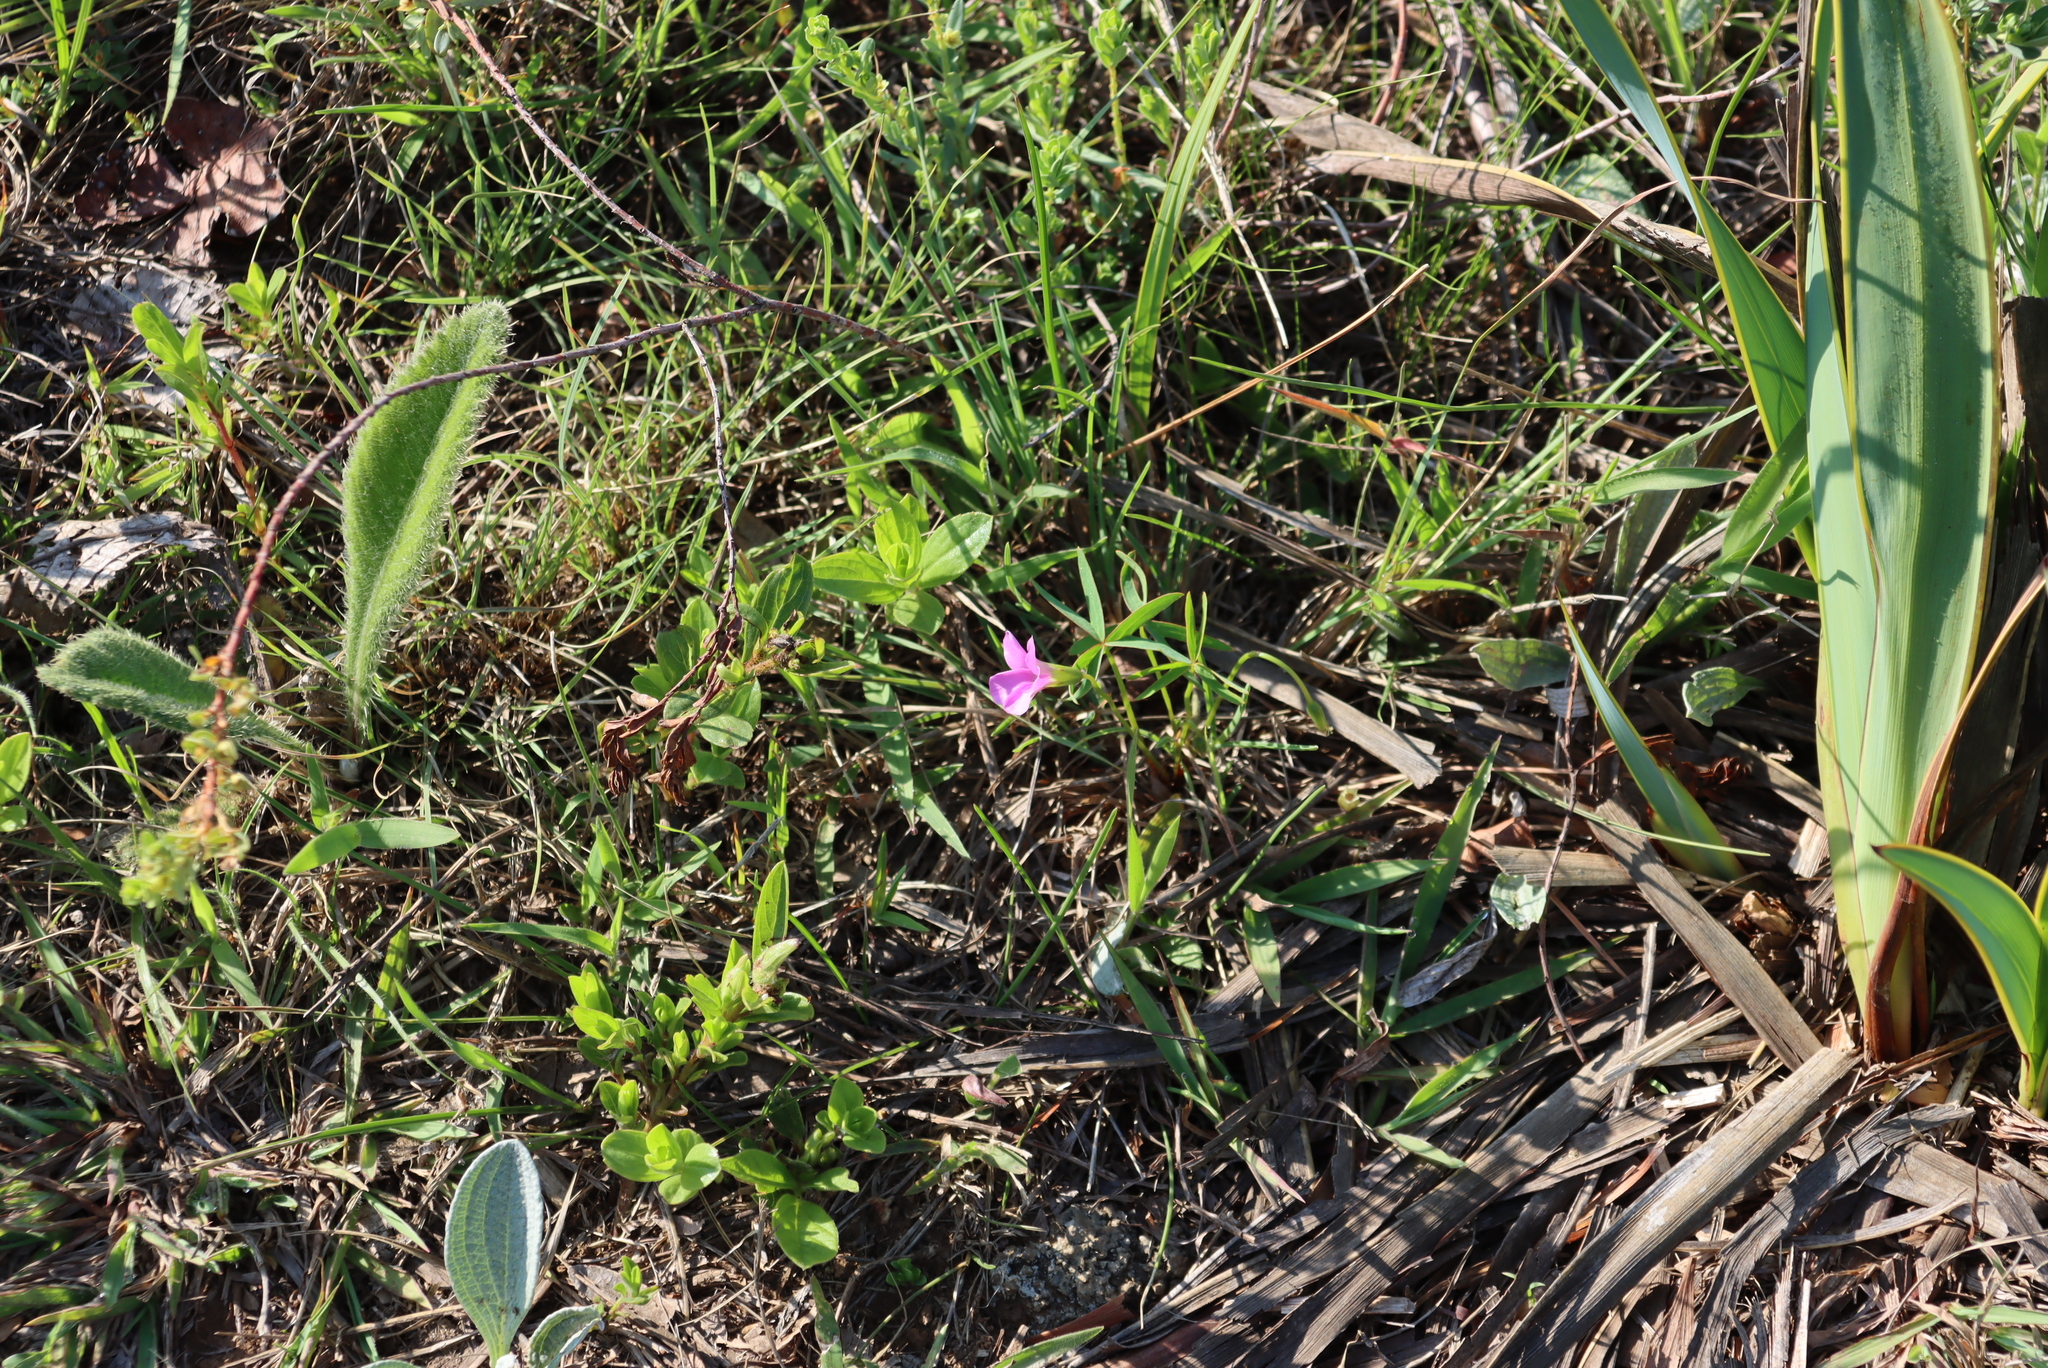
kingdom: Plantae
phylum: Tracheophyta
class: Magnoliopsida
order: Oxalidales
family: Oxalidaceae
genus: Oxalis
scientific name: Oxalis smithiana
